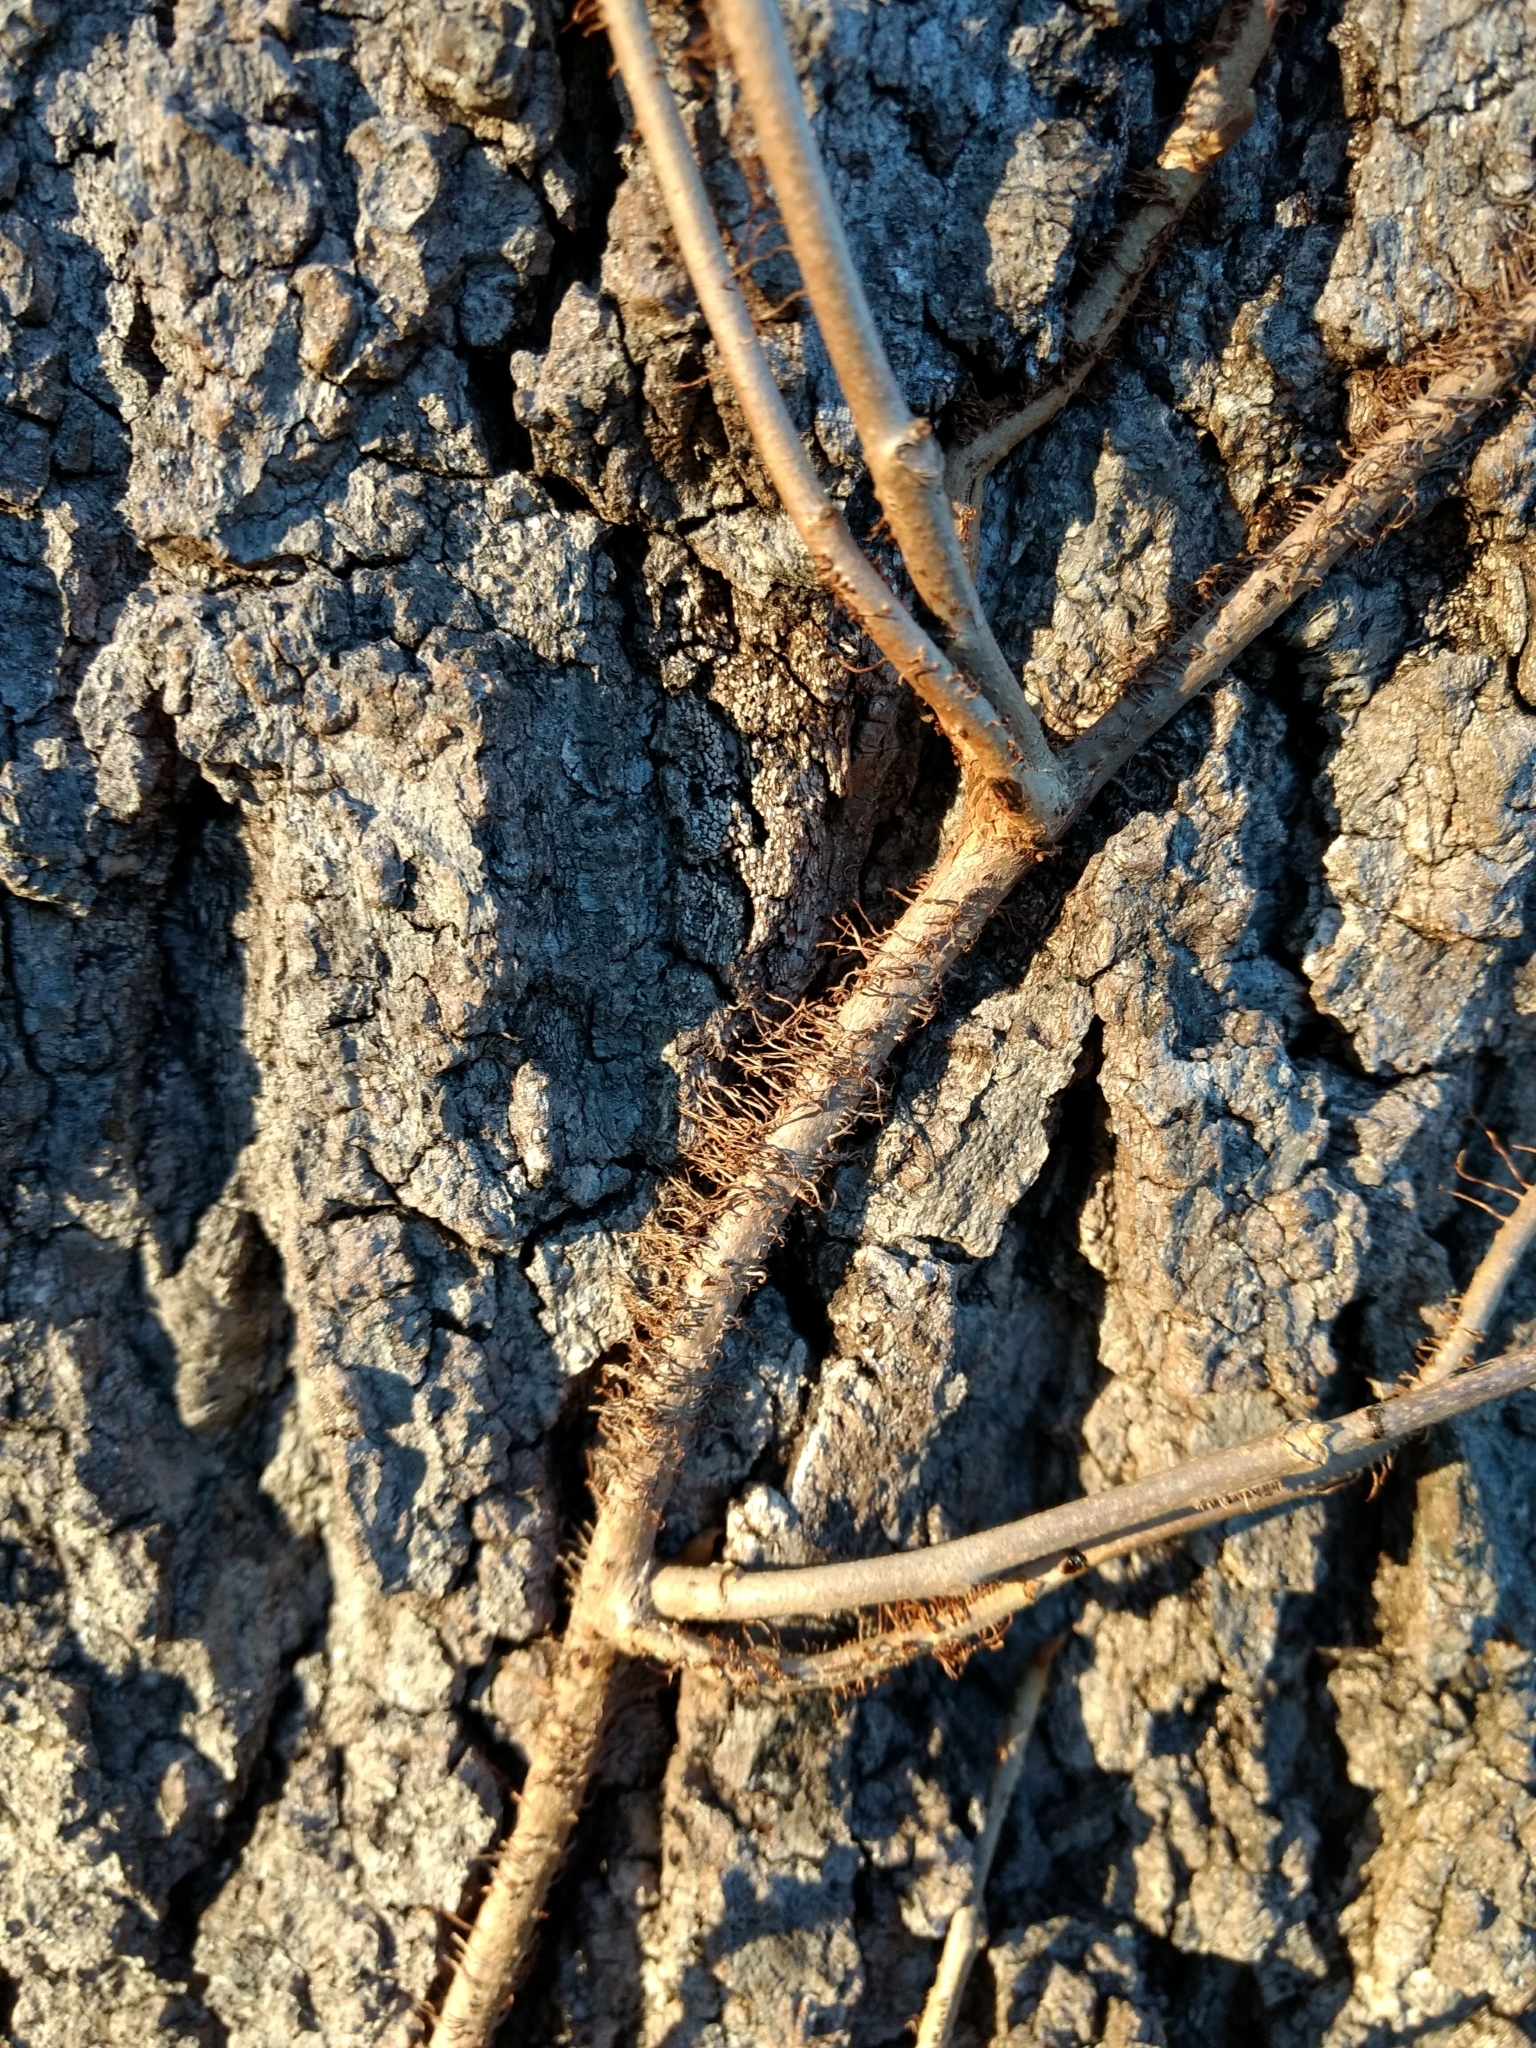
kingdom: Plantae
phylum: Tracheophyta
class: Magnoliopsida
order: Sapindales
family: Anacardiaceae
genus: Toxicodendron
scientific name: Toxicodendron radicans
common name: Poison ivy
